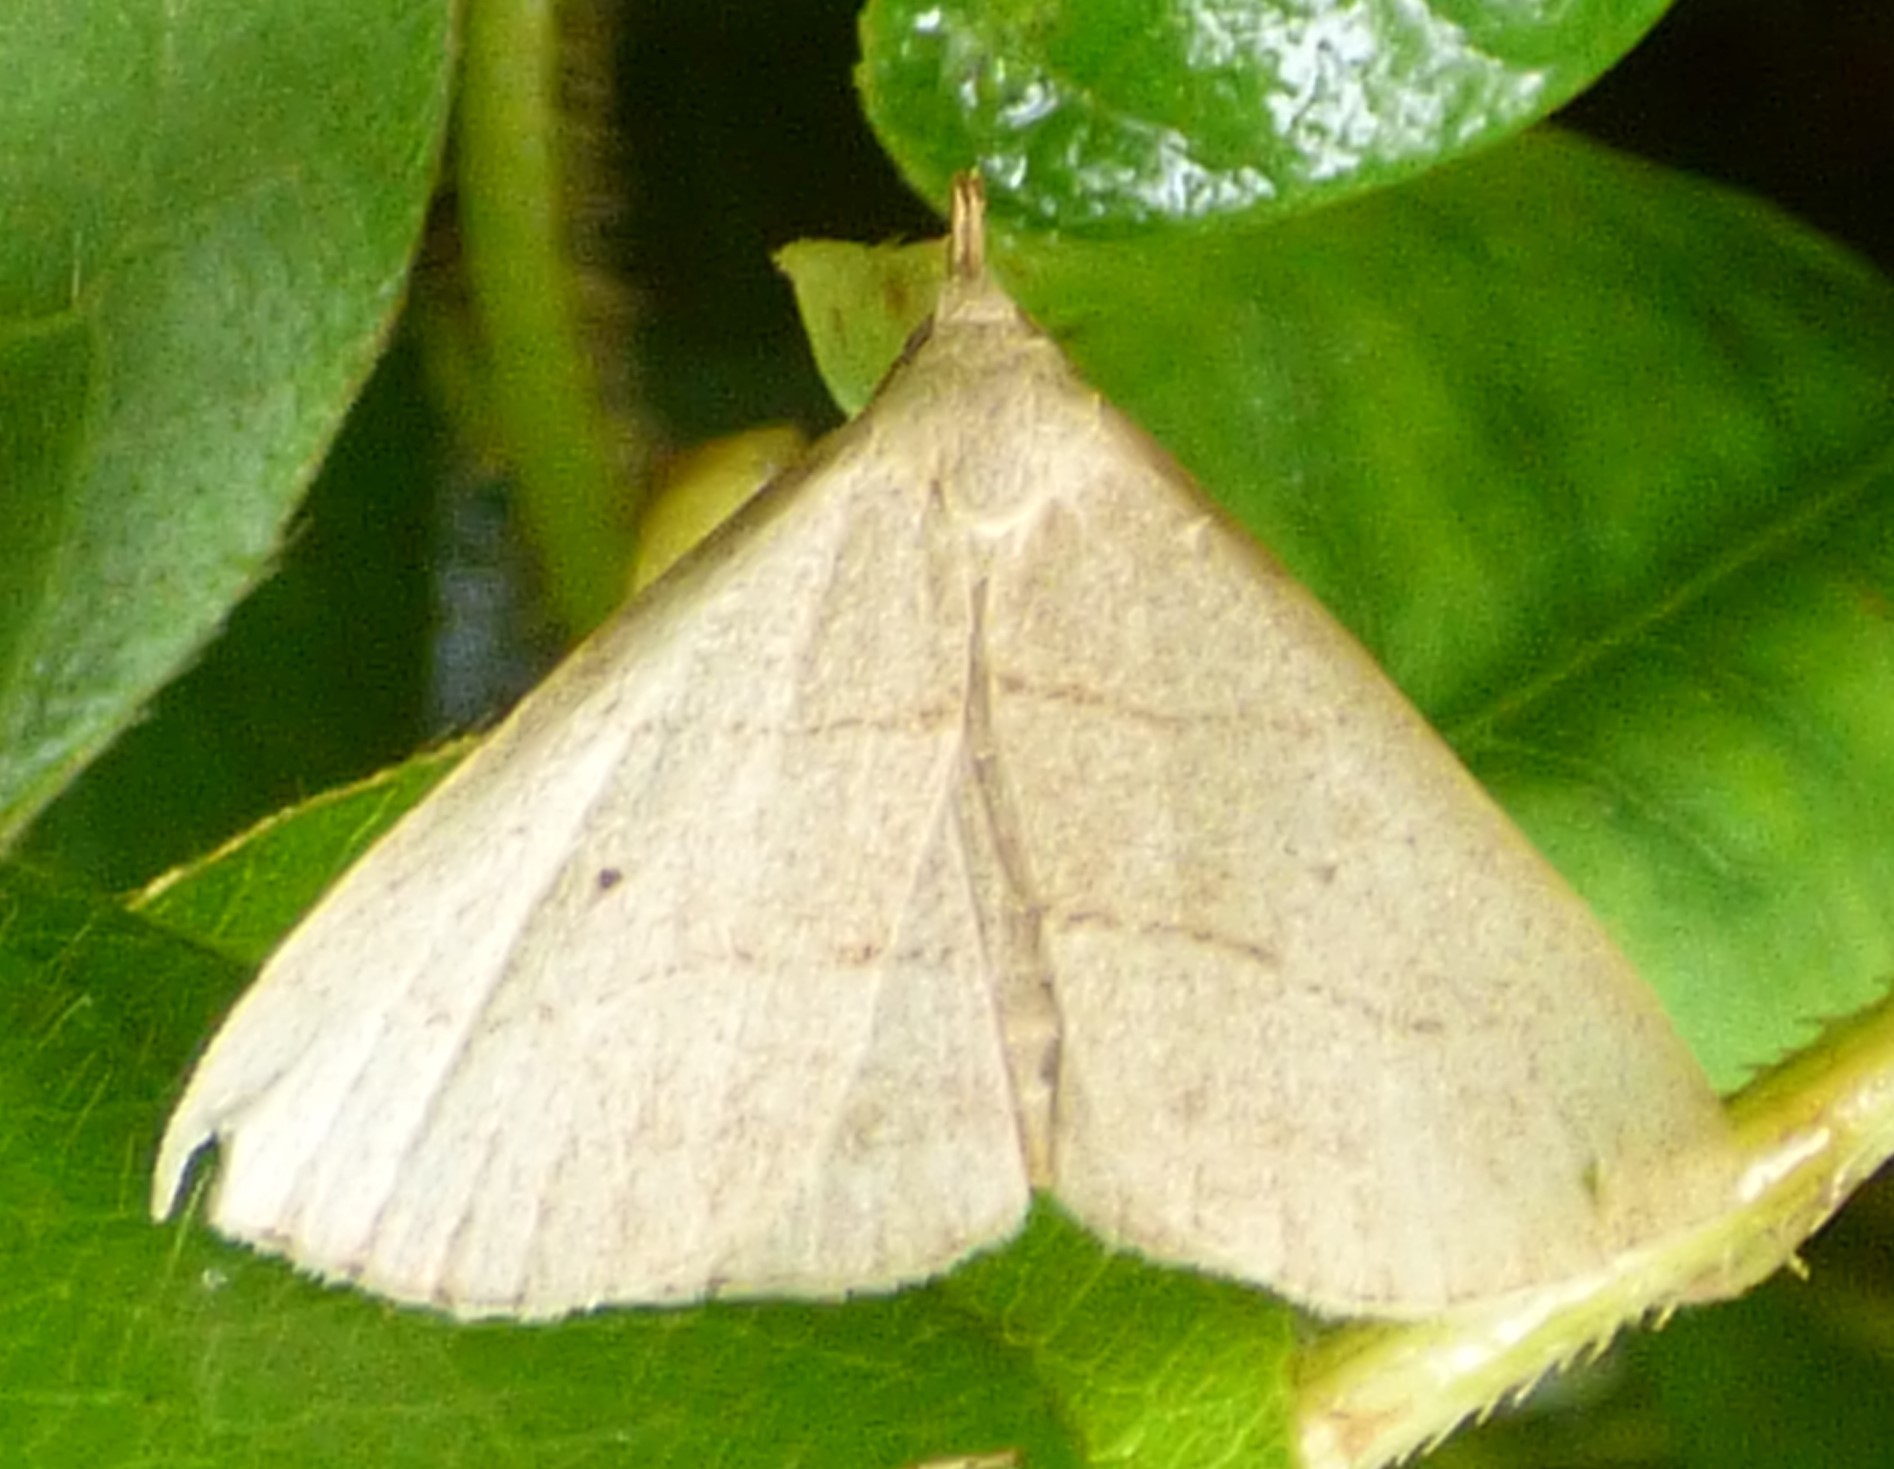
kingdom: Animalia
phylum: Arthropoda
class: Insecta
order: Lepidoptera
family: Erebidae
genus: Macrochilo
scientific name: Macrochilo litophora
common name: Brown-lined owlet
